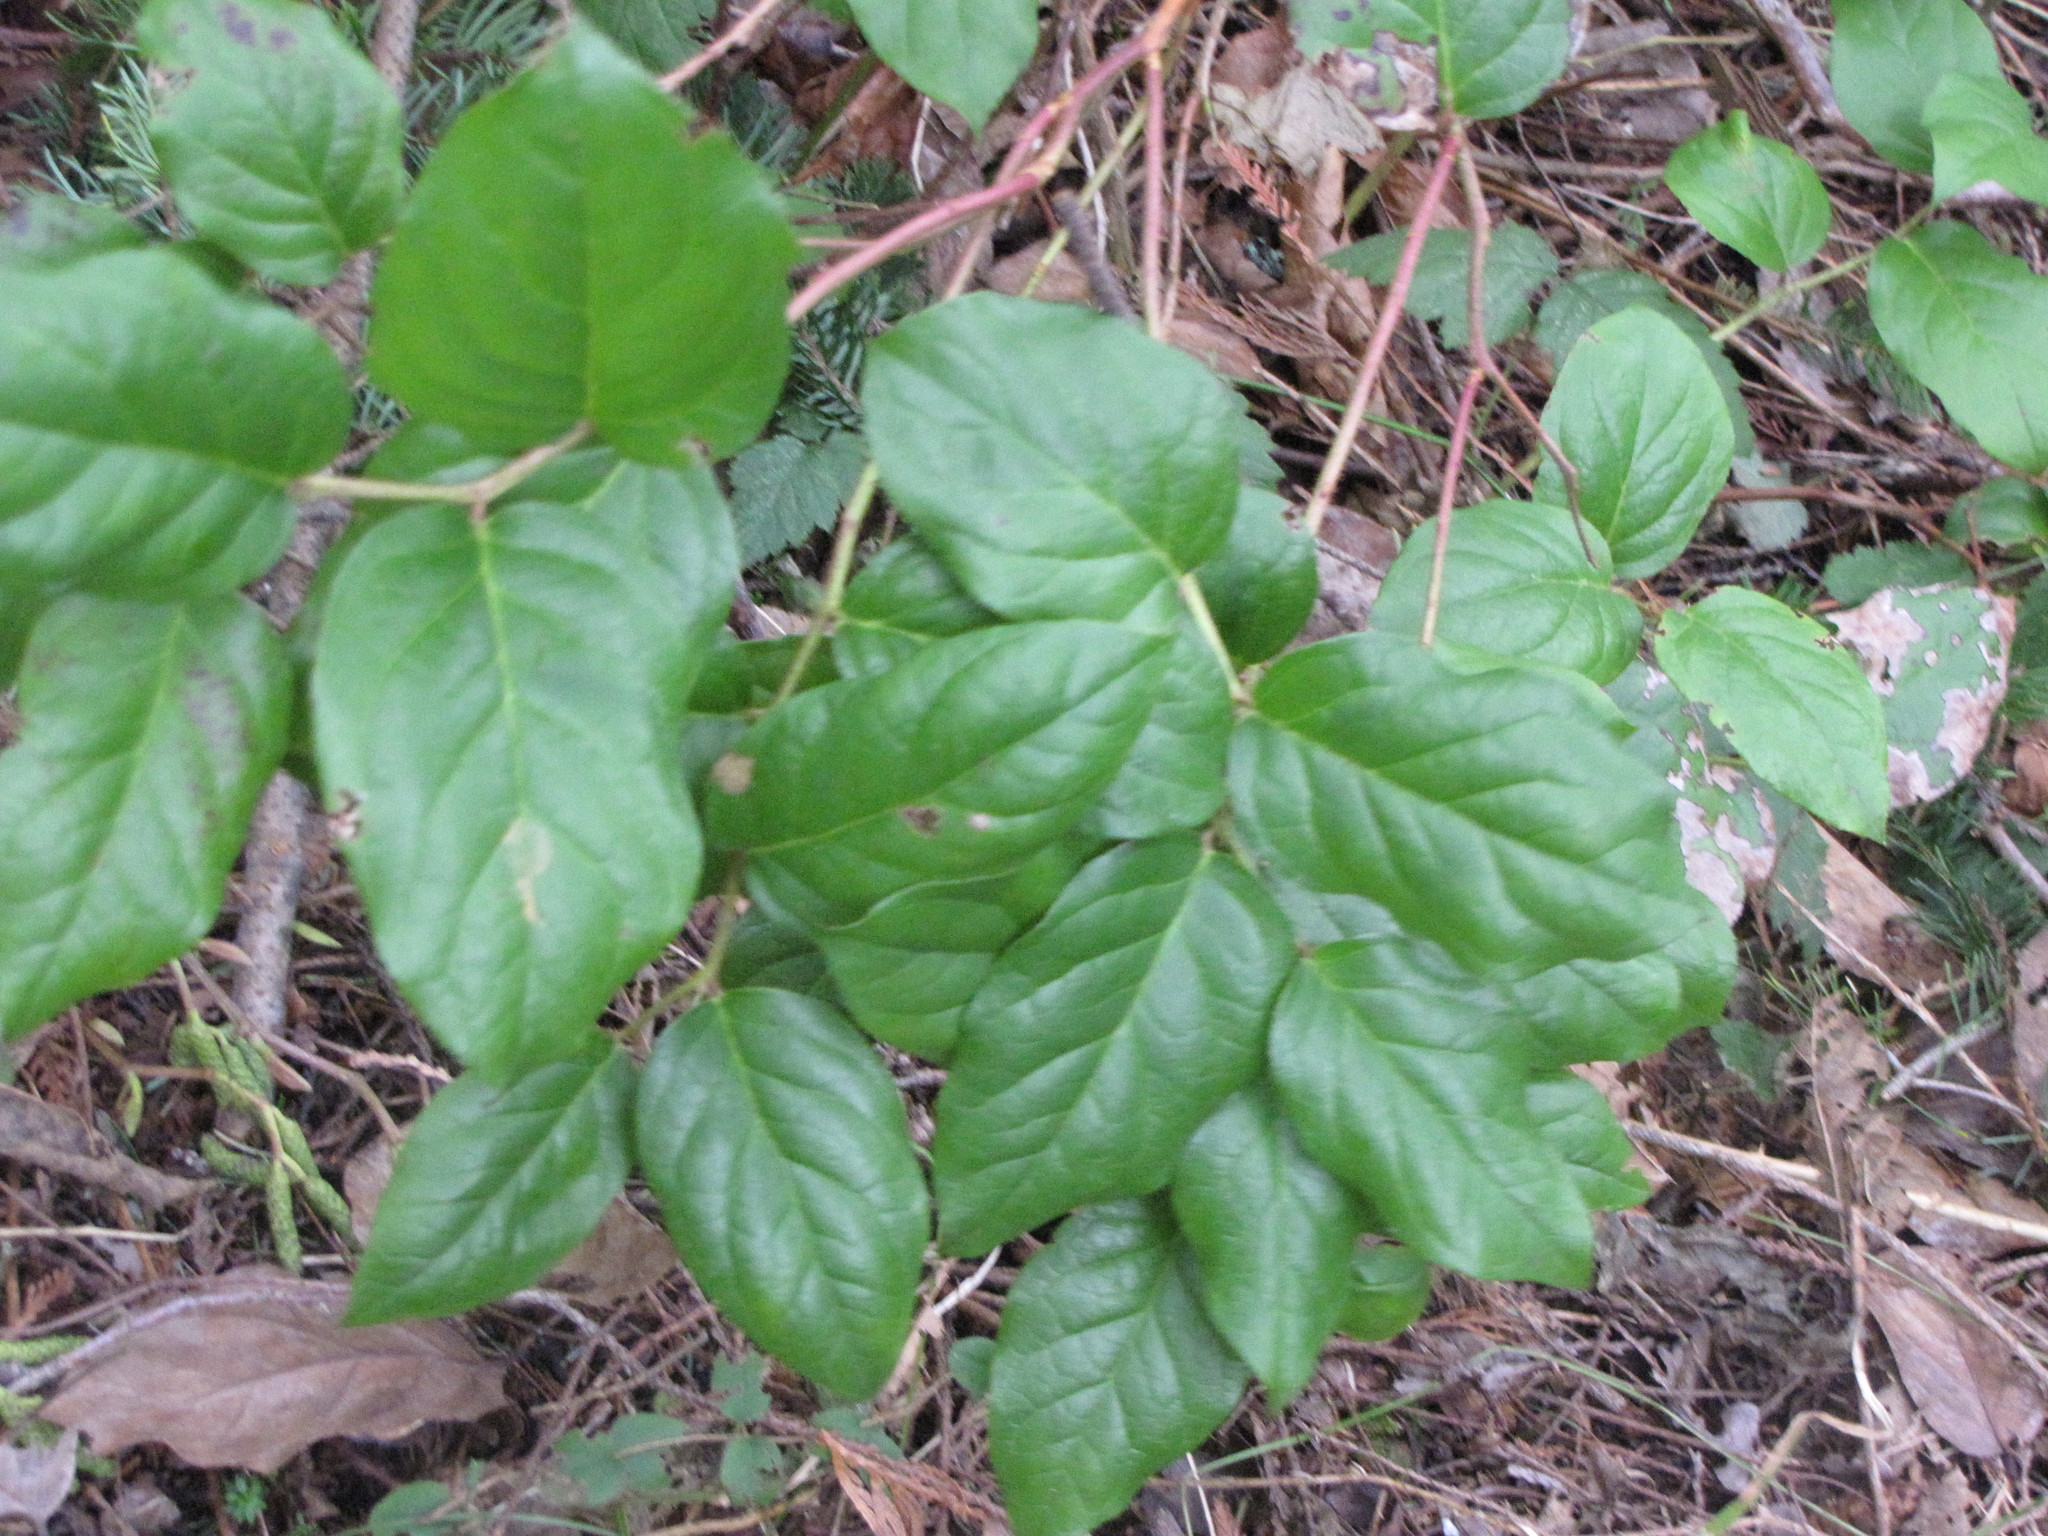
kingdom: Plantae
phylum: Tracheophyta
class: Magnoliopsida
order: Ericales
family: Ericaceae
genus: Gaultheria
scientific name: Gaultheria shallon
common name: Shallon
